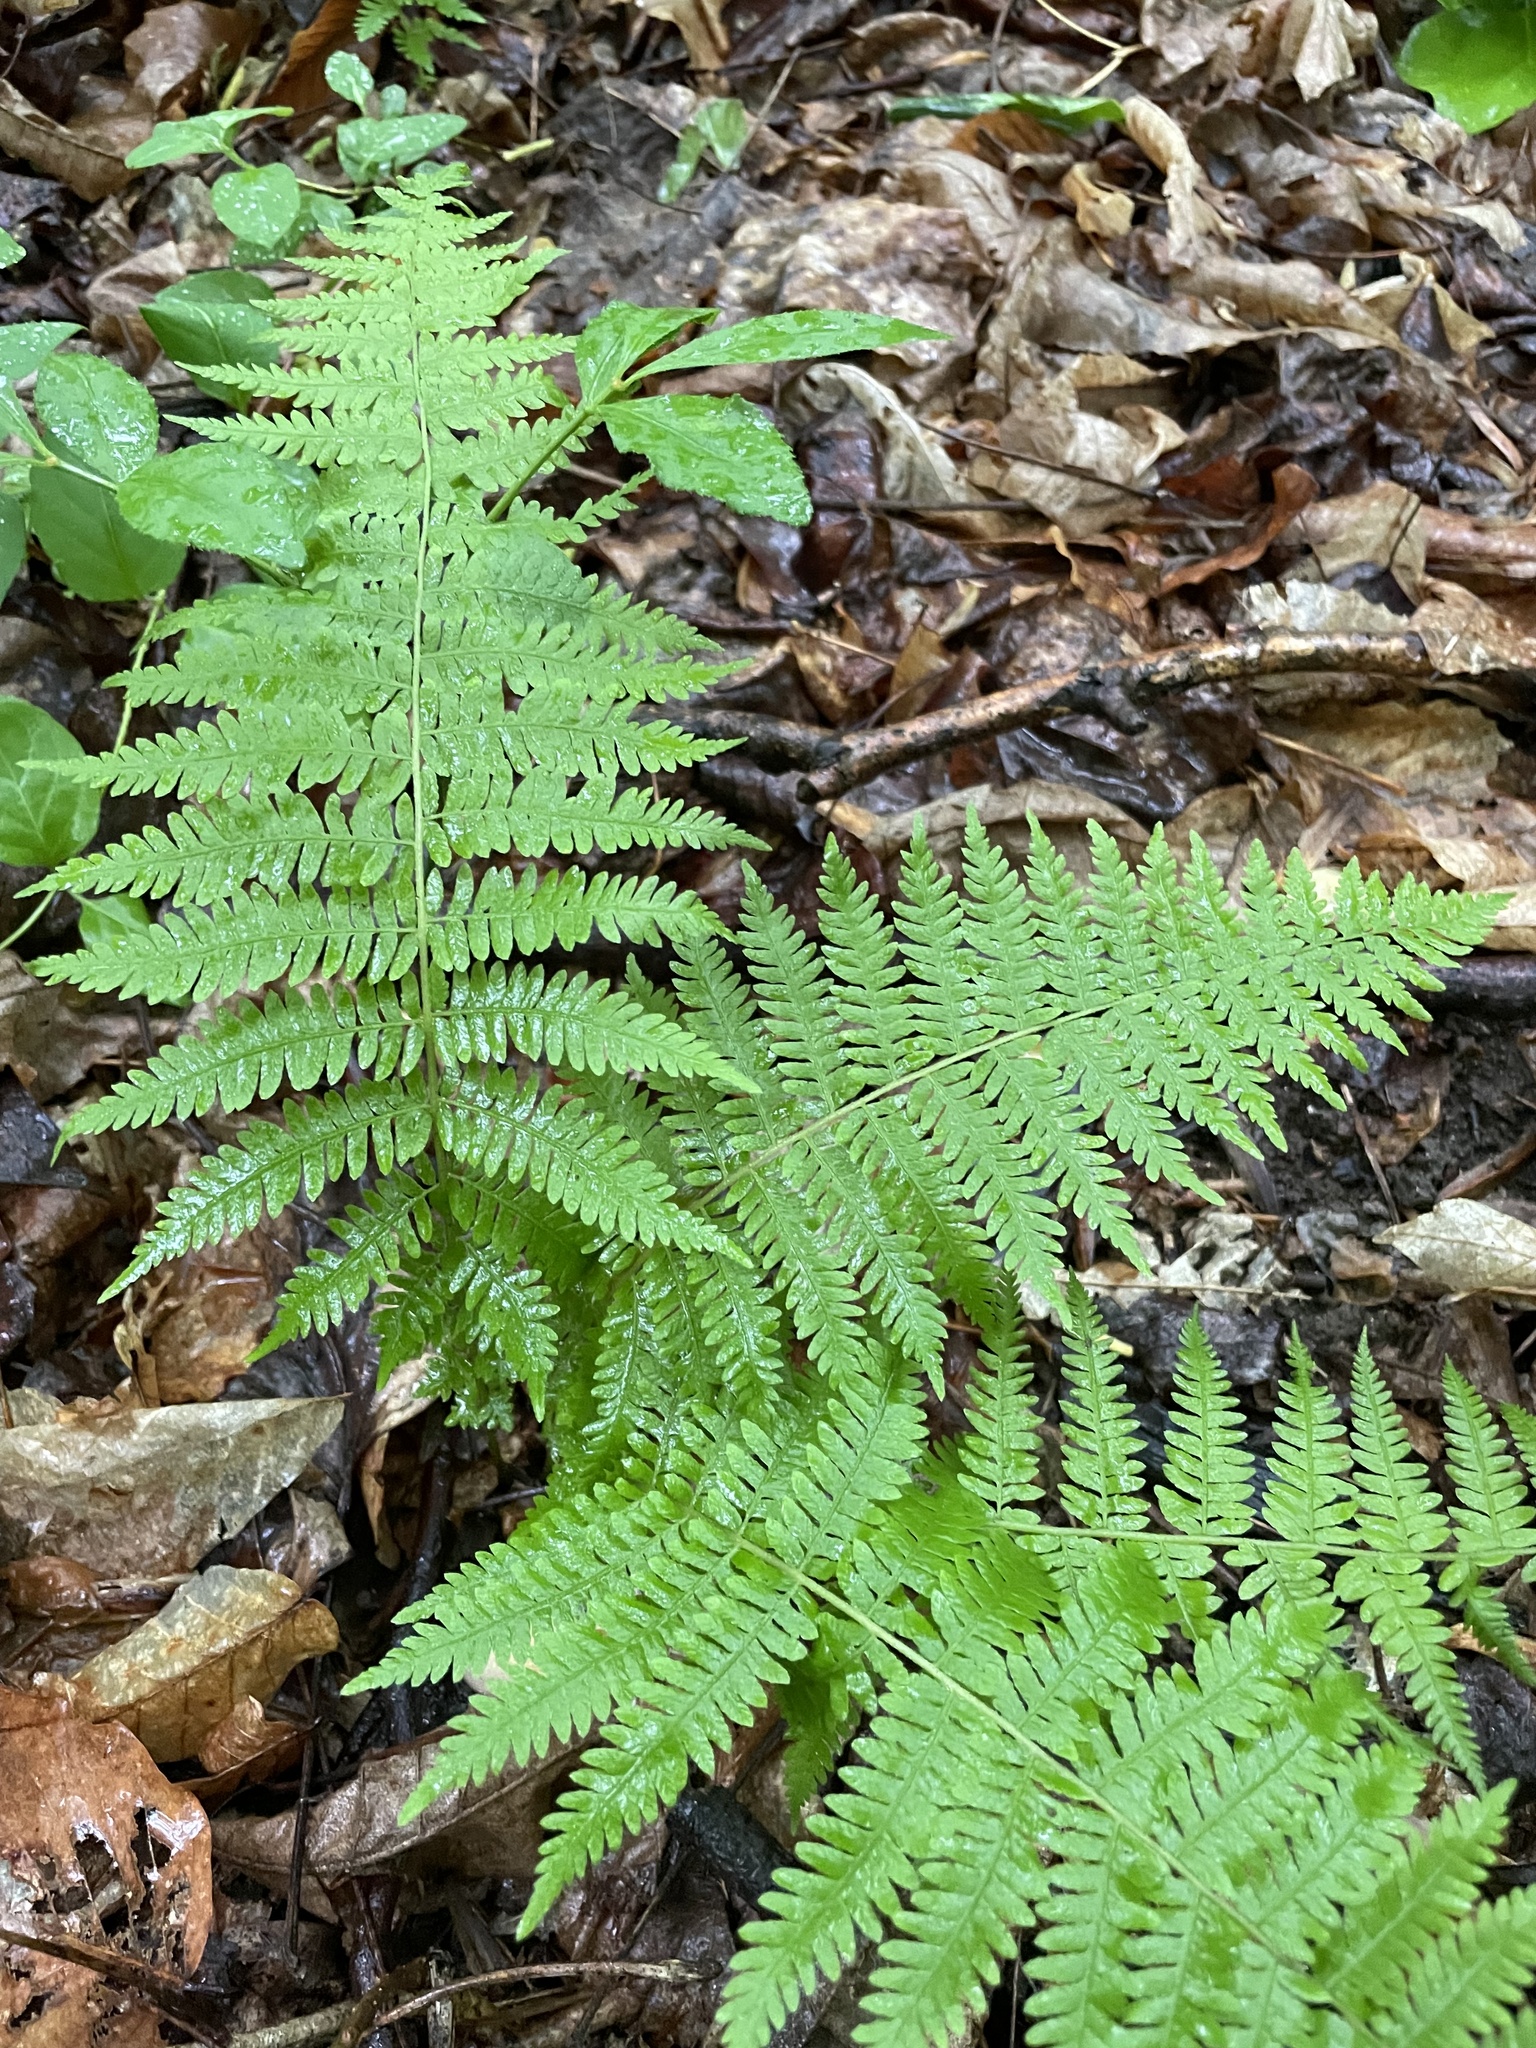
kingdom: Plantae
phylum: Tracheophyta
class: Polypodiopsida
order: Polypodiales
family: Thelypteridaceae
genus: Amauropelta
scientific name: Amauropelta noveboracensis
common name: New york fern
